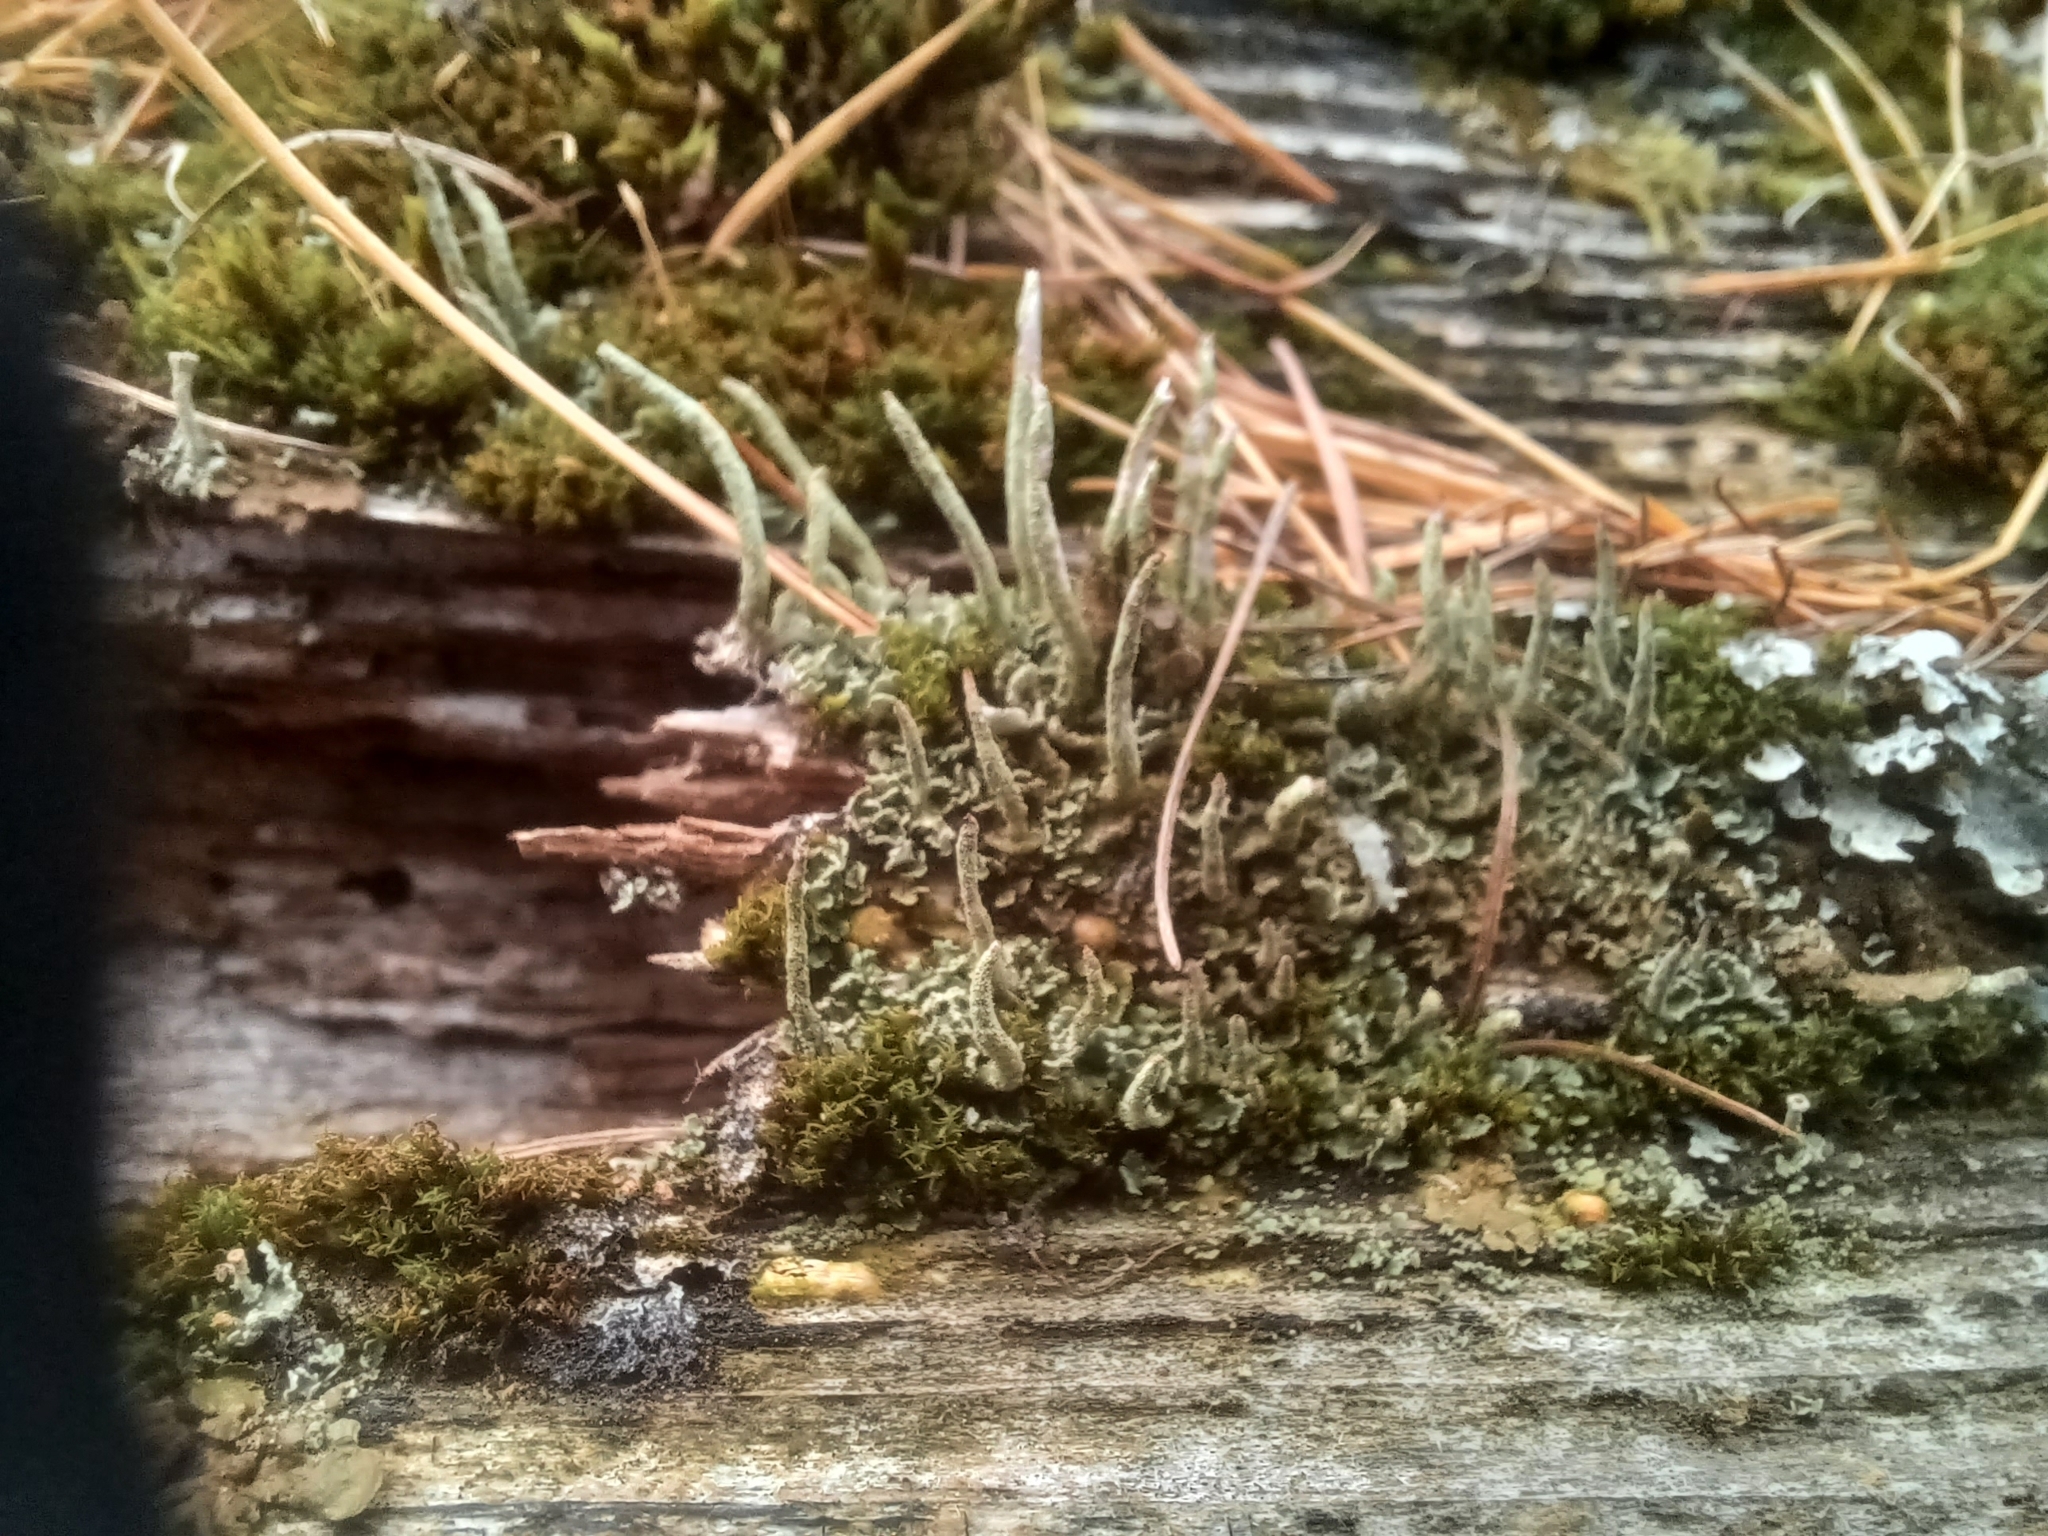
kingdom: Fungi
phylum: Ascomycota
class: Lecanoromycetes
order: Lecanorales
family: Cladoniaceae
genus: Cladonia
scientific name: Cladonia fimbriata
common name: Powdered trumpet lichen
